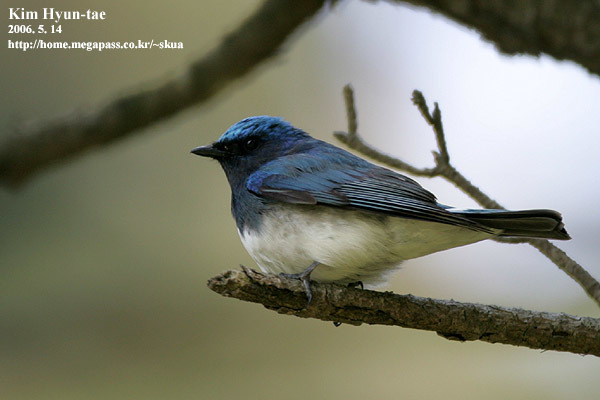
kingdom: Animalia
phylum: Chordata
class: Aves
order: Passeriformes
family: Muscicapidae
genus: Cyanoptila
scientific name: Cyanoptila cyanomelana
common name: Blue-and-white flycatcher
